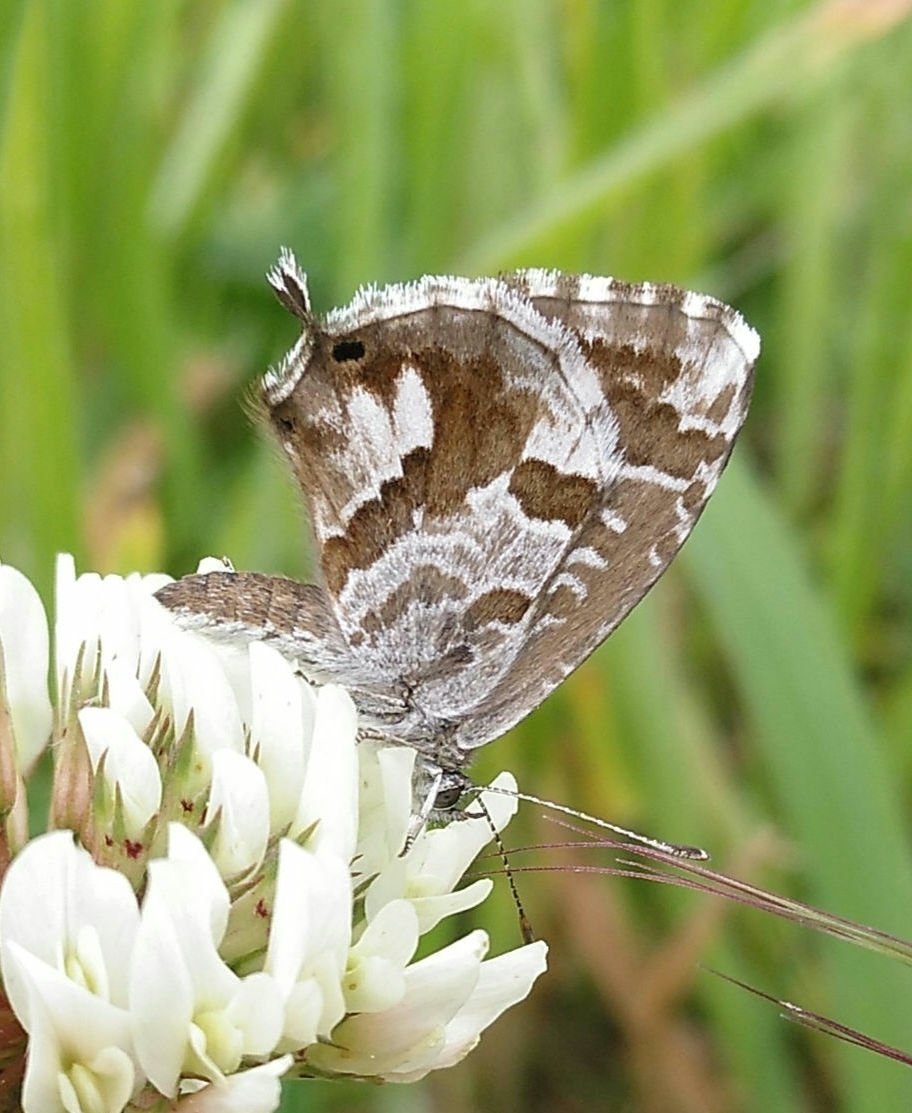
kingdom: Animalia
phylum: Arthropoda
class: Insecta
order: Lepidoptera
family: Lycaenidae
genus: Cacyreus
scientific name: Cacyreus marshalli
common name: Geranium bronze
